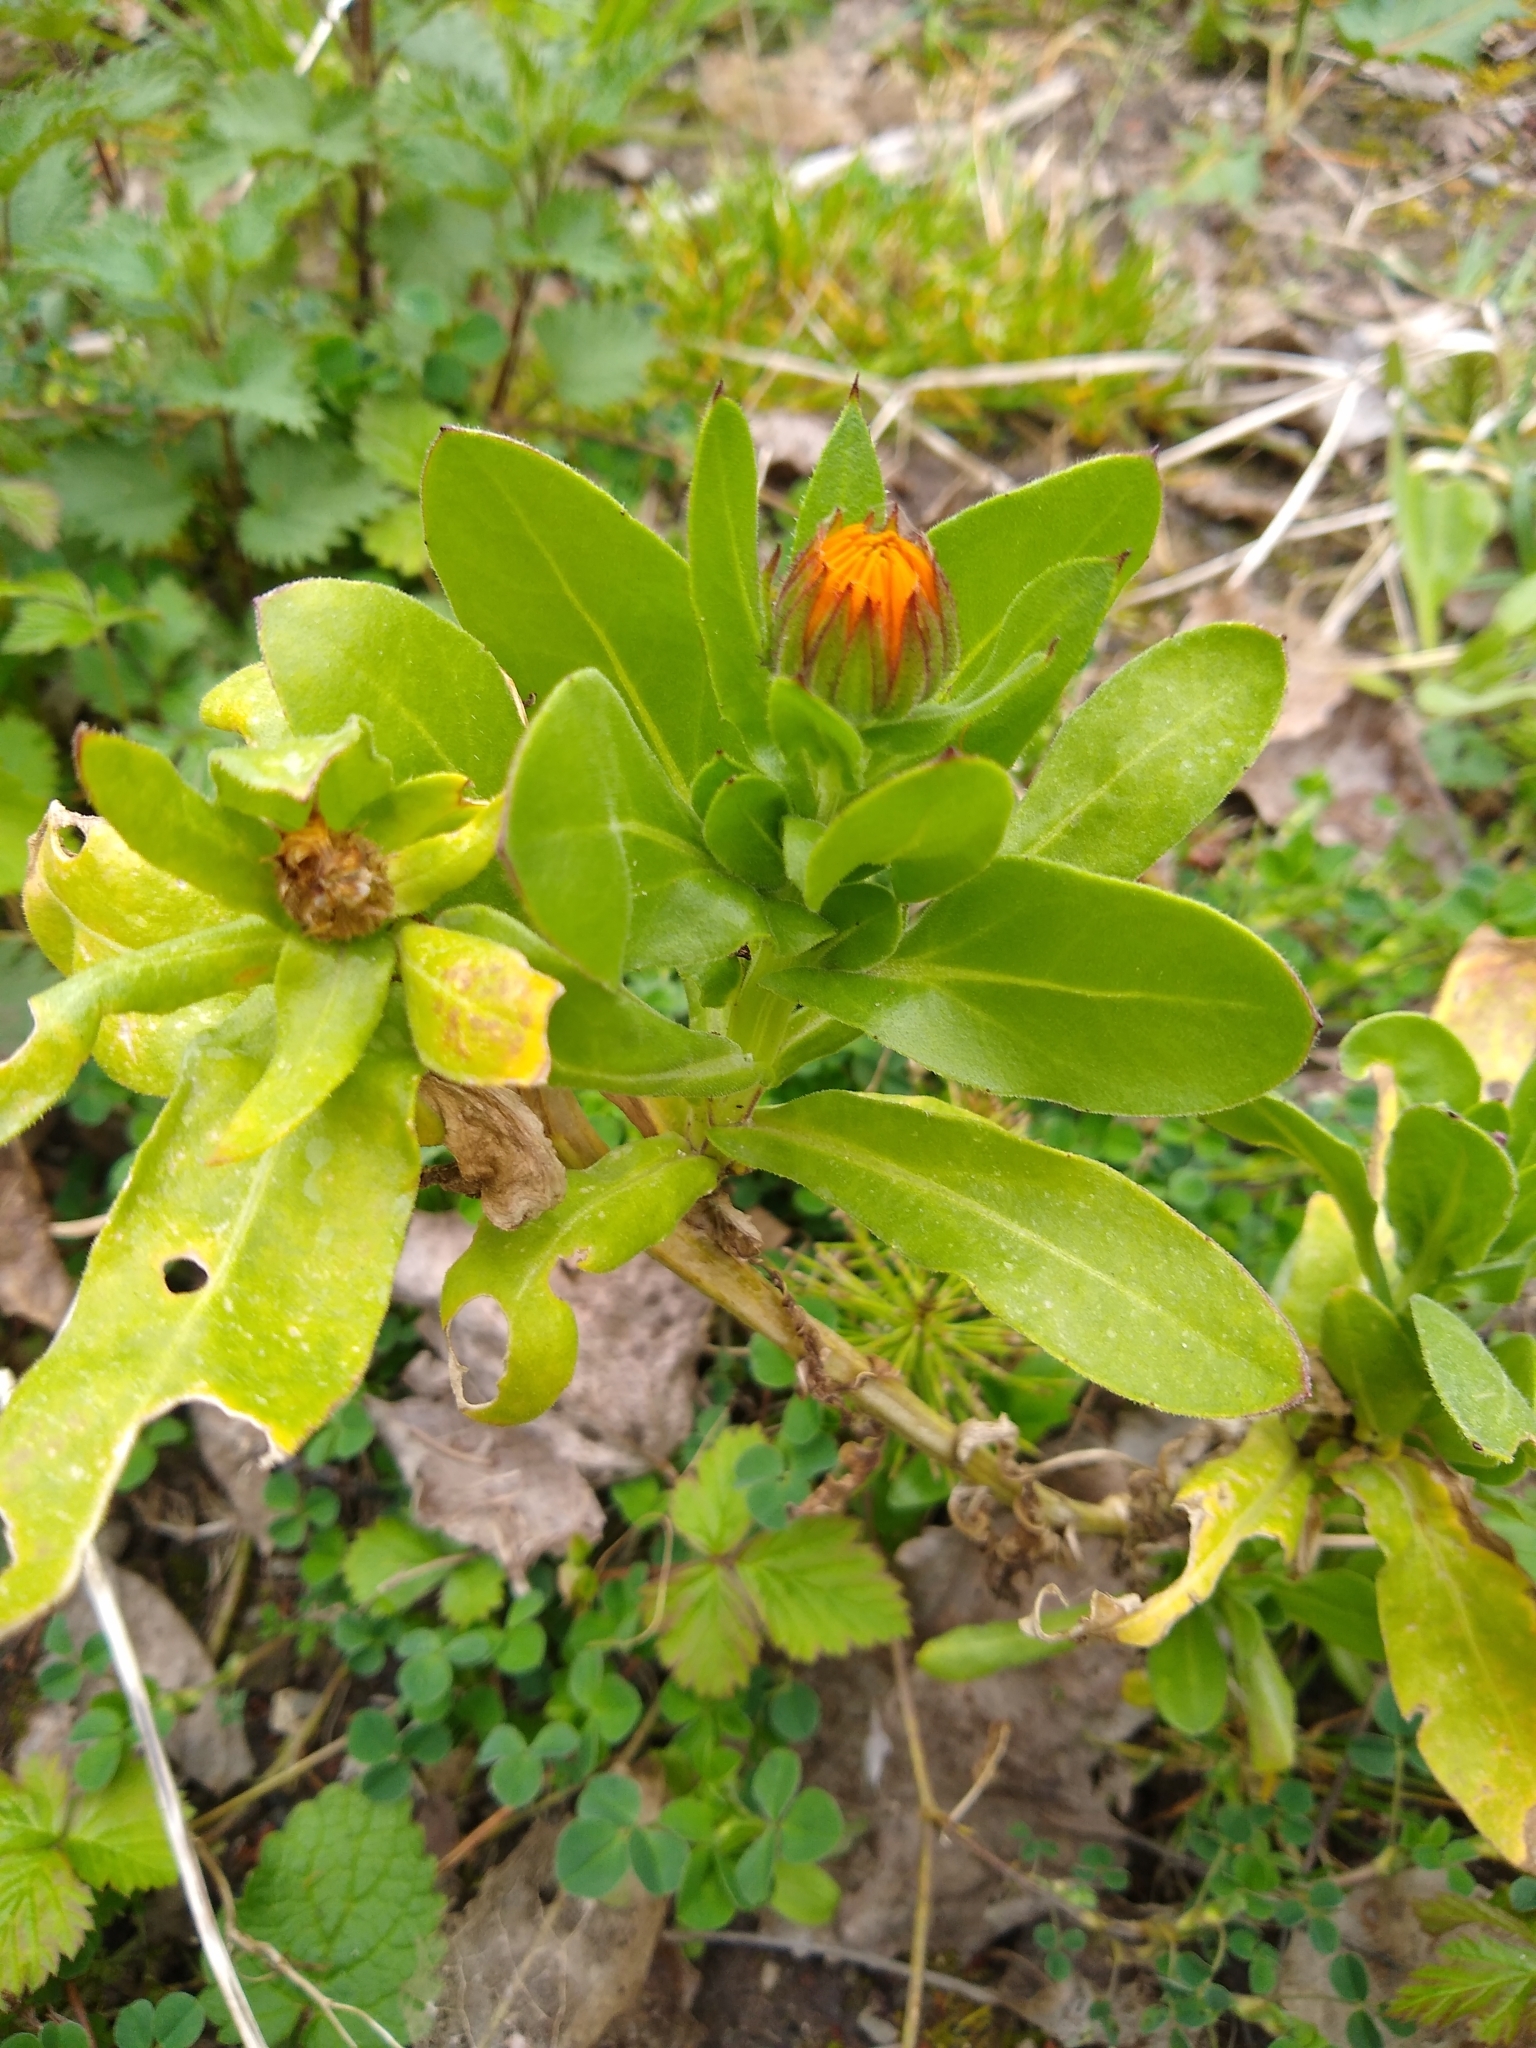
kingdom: Plantae
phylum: Tracheophyta
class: Magnoliopsida
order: Asterales
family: Asteraceae
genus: Calendula
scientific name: Calendula officinalis
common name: Pot marigold
